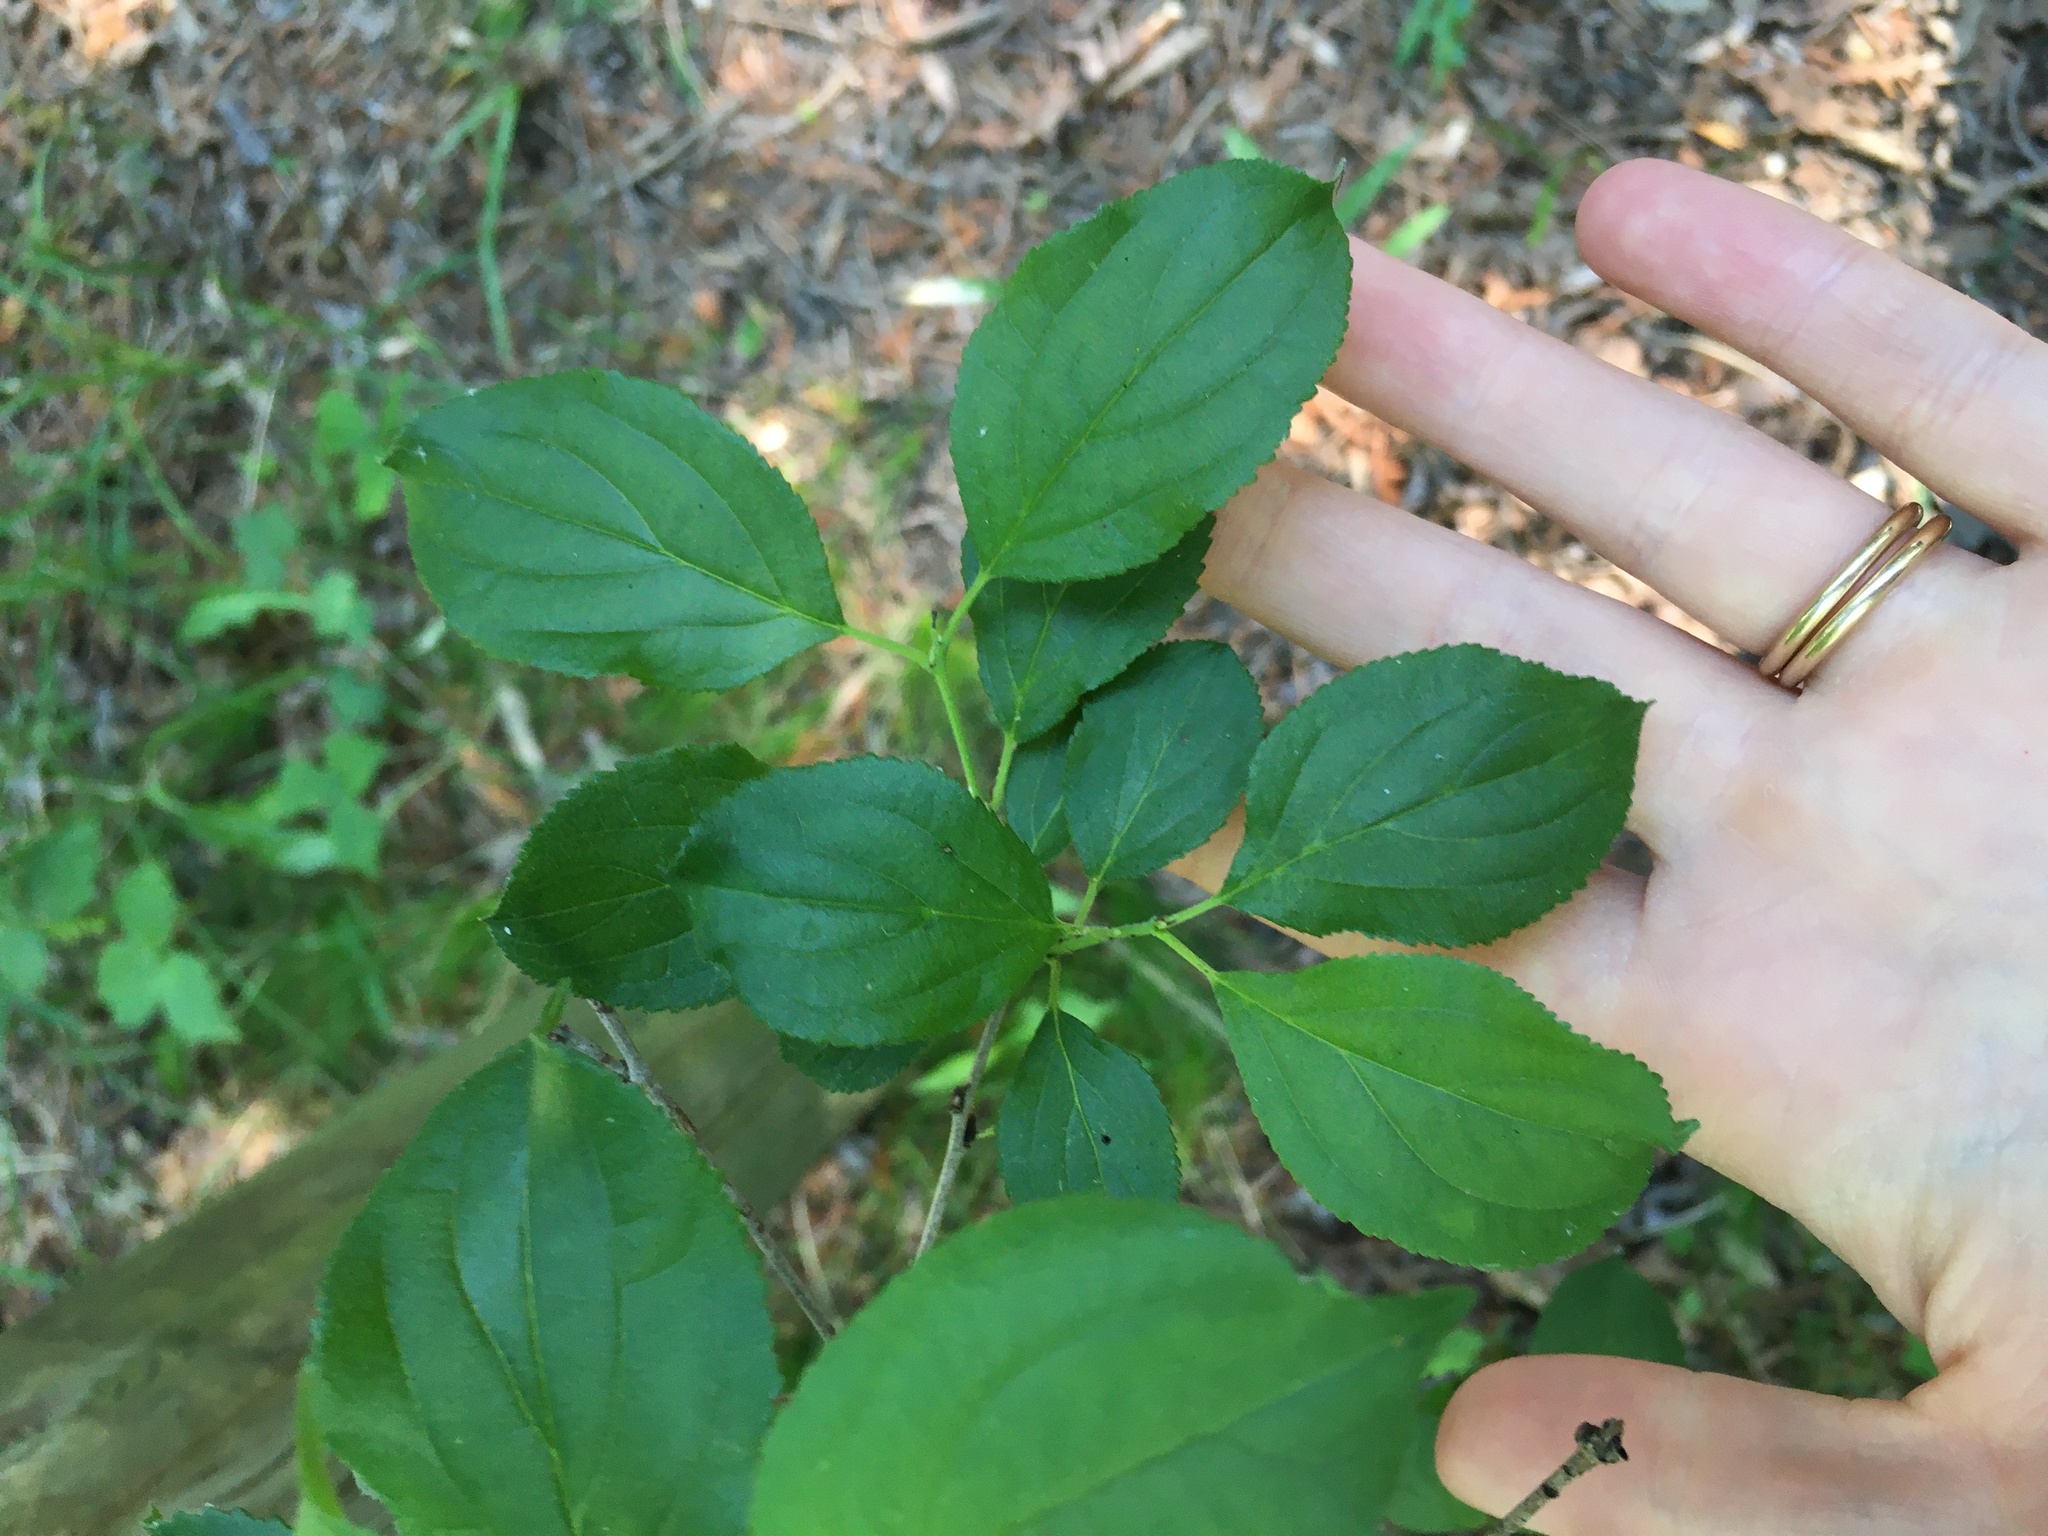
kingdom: Plantae
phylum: Tracheophyta
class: Magnoliopsida
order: Rosales
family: Rhamnaceae
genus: Rhamnus
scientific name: Rhamnus cathartica
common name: Common buckthorn
